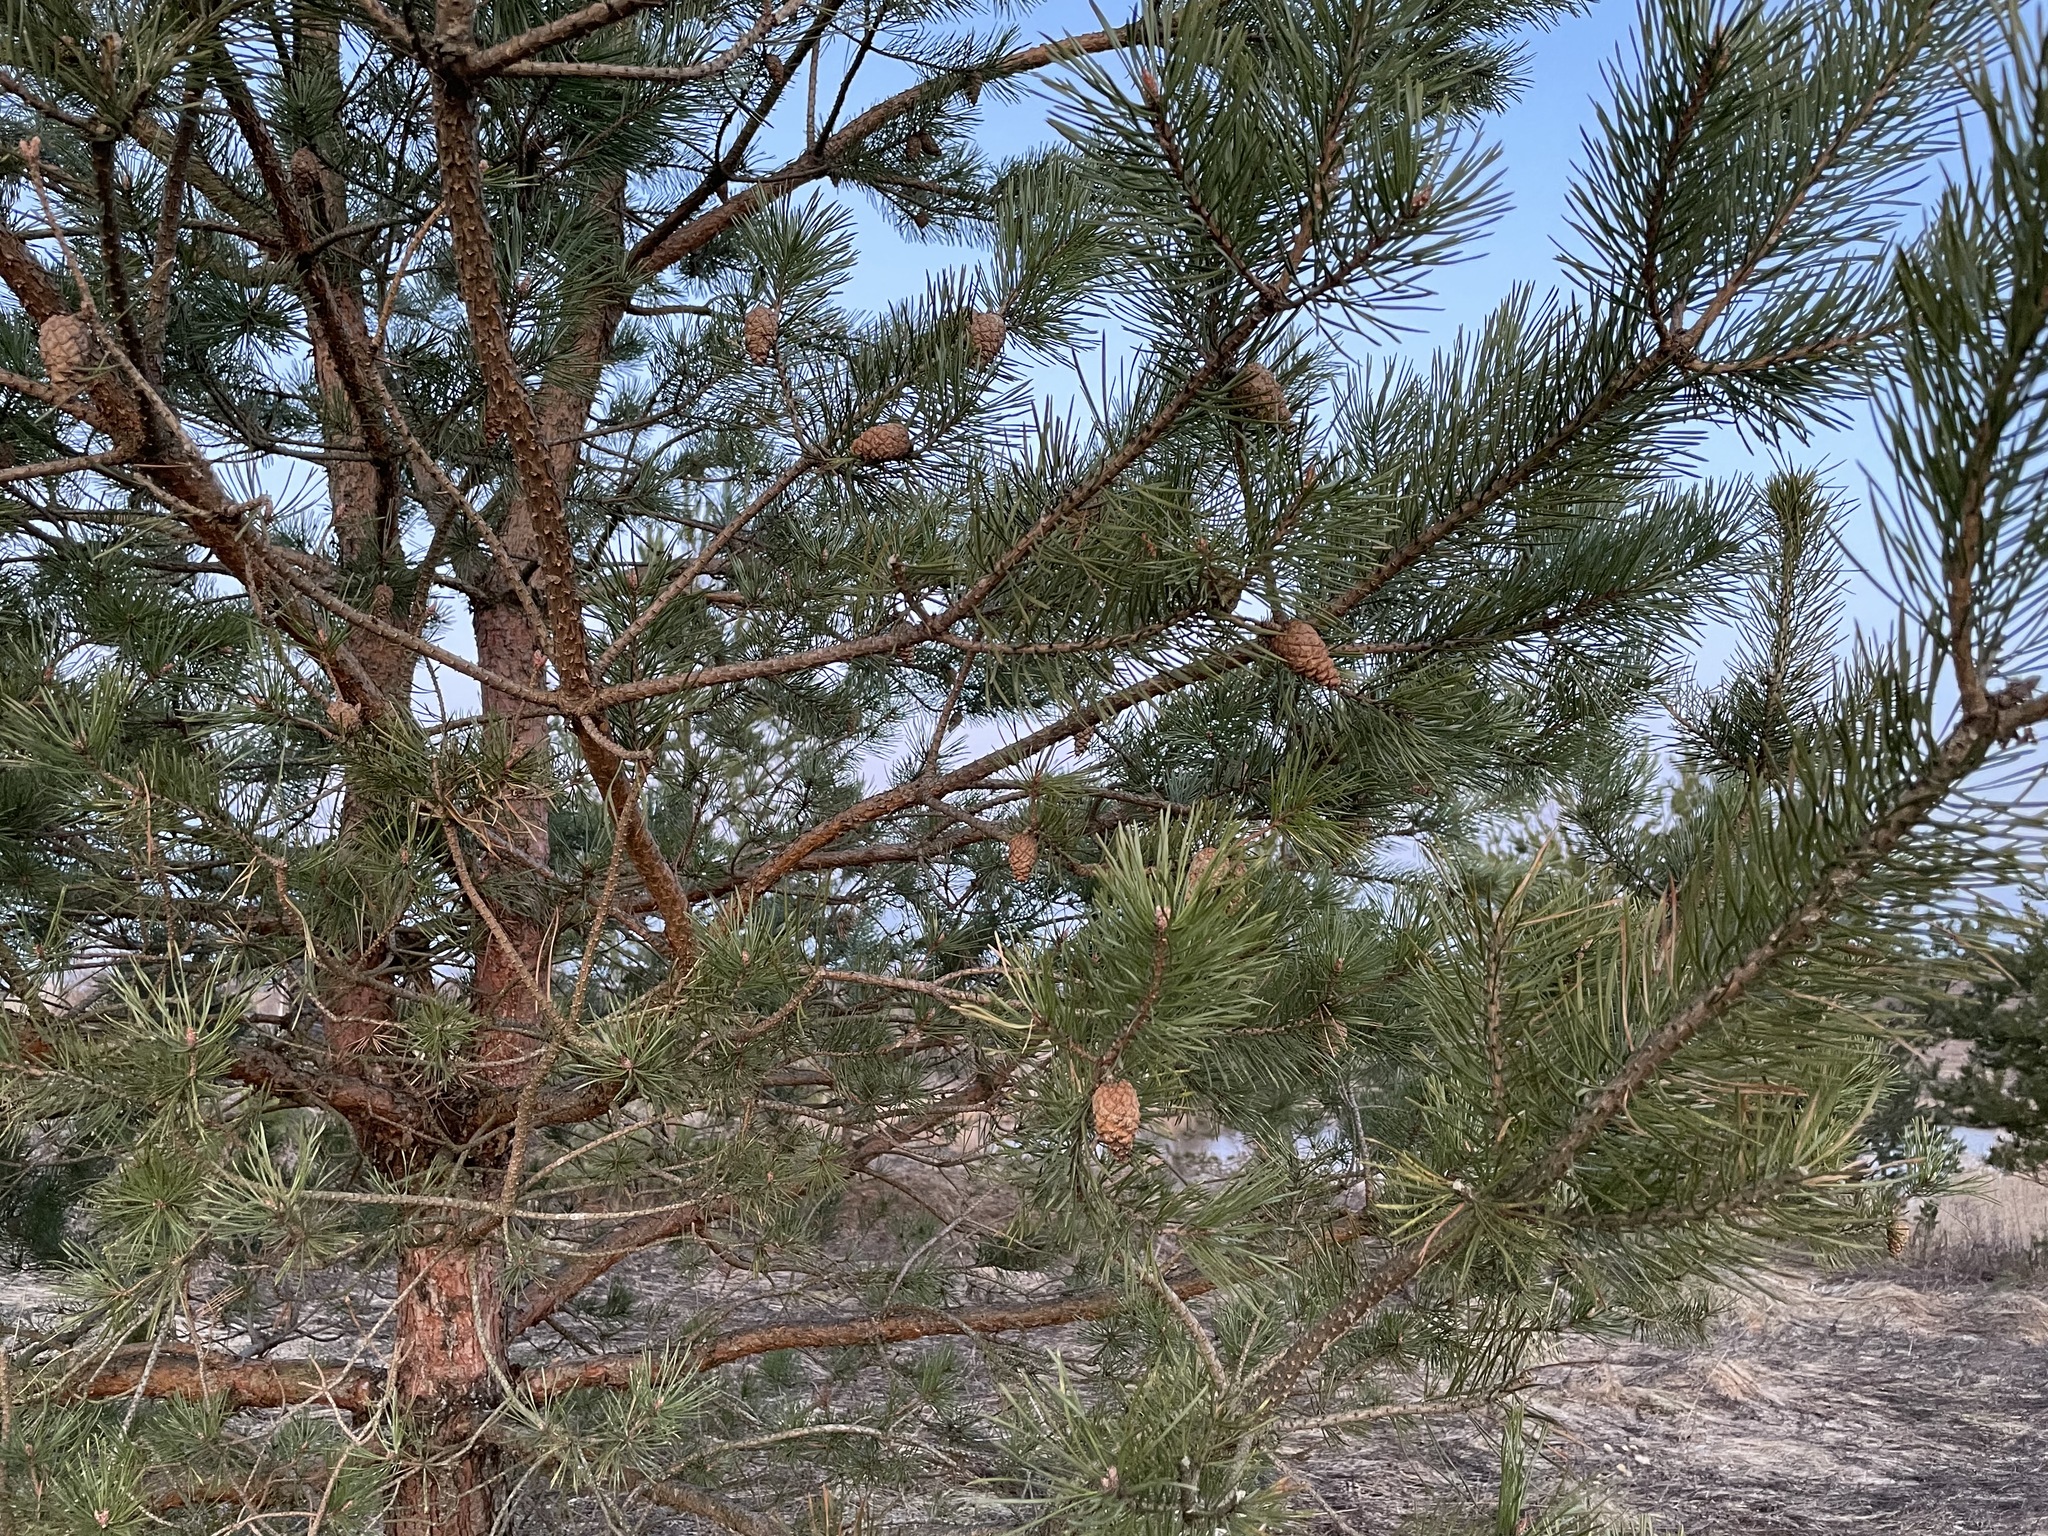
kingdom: Plantae
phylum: Tracheophyta
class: Pinopsida
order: Pinales
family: Pinaceae
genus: Pinus
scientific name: Pinus sylvestris
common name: Scots pine
